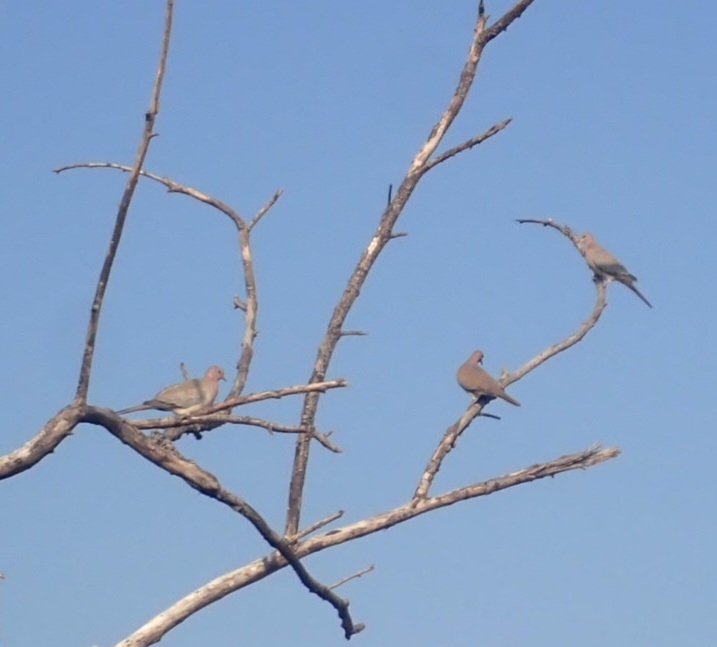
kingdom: Animalia
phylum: Chordata
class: Aves
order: Columbiformes
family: Columbidae
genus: Spilopelia
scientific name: Spilopelia senegalensis
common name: Laughing dove
